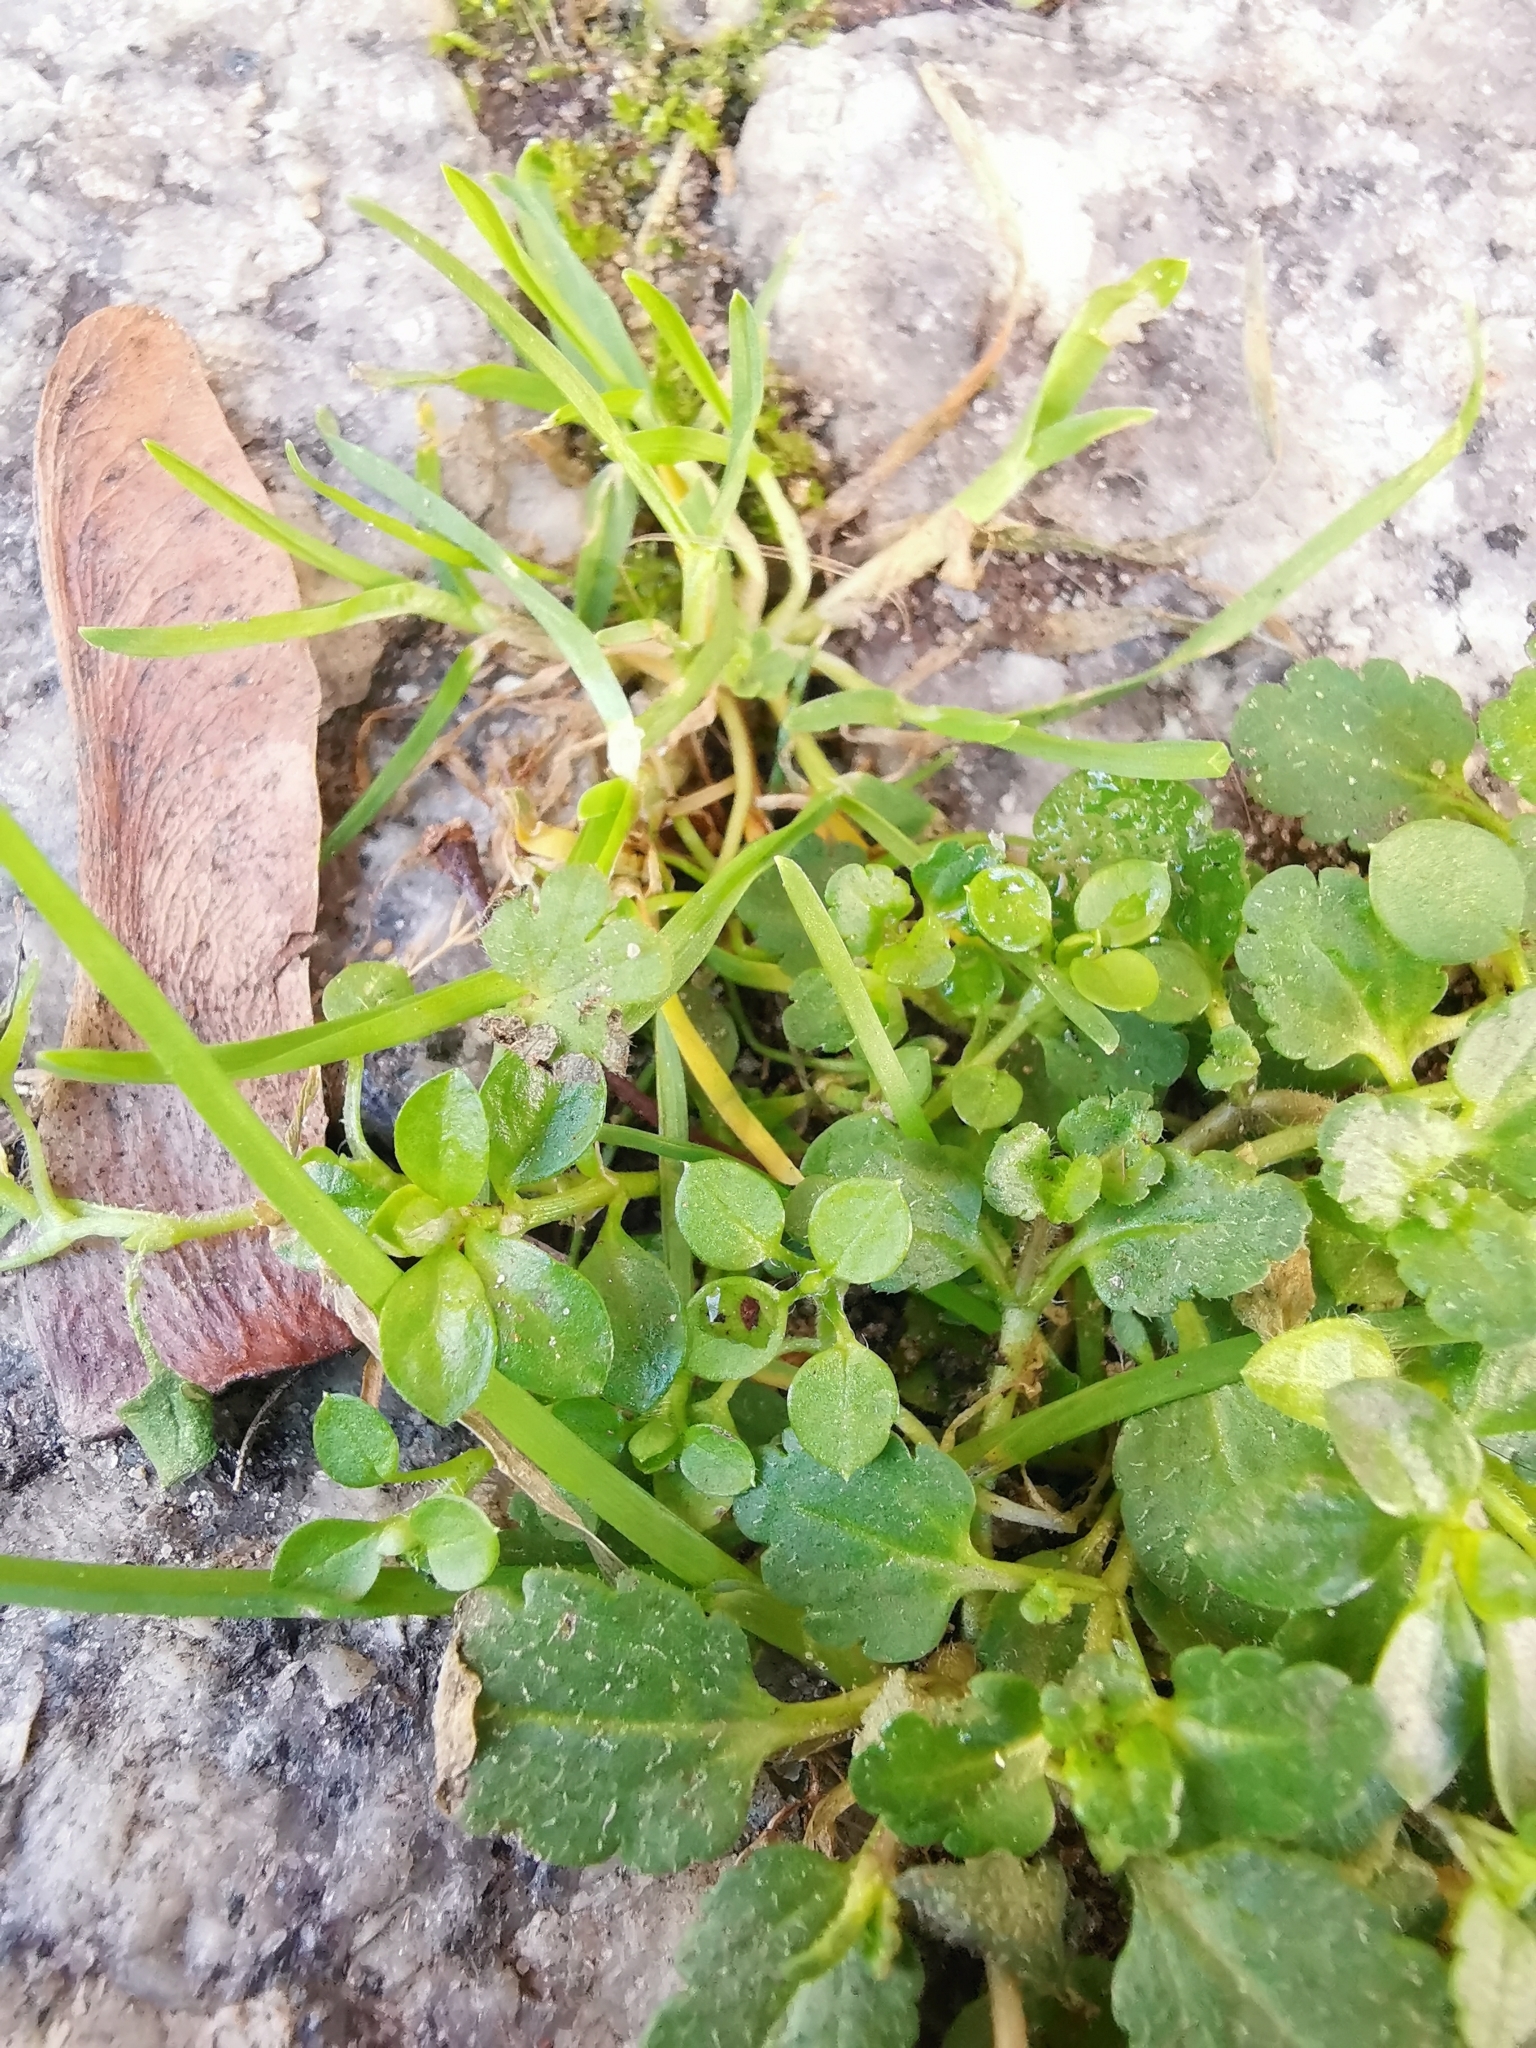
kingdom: Plantae
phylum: Tracheophyta
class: Magnoliopsida
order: Caryophyllales
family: Caryophyllaceae
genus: Stellaria
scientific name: Stellaria media
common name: Common chickweed
